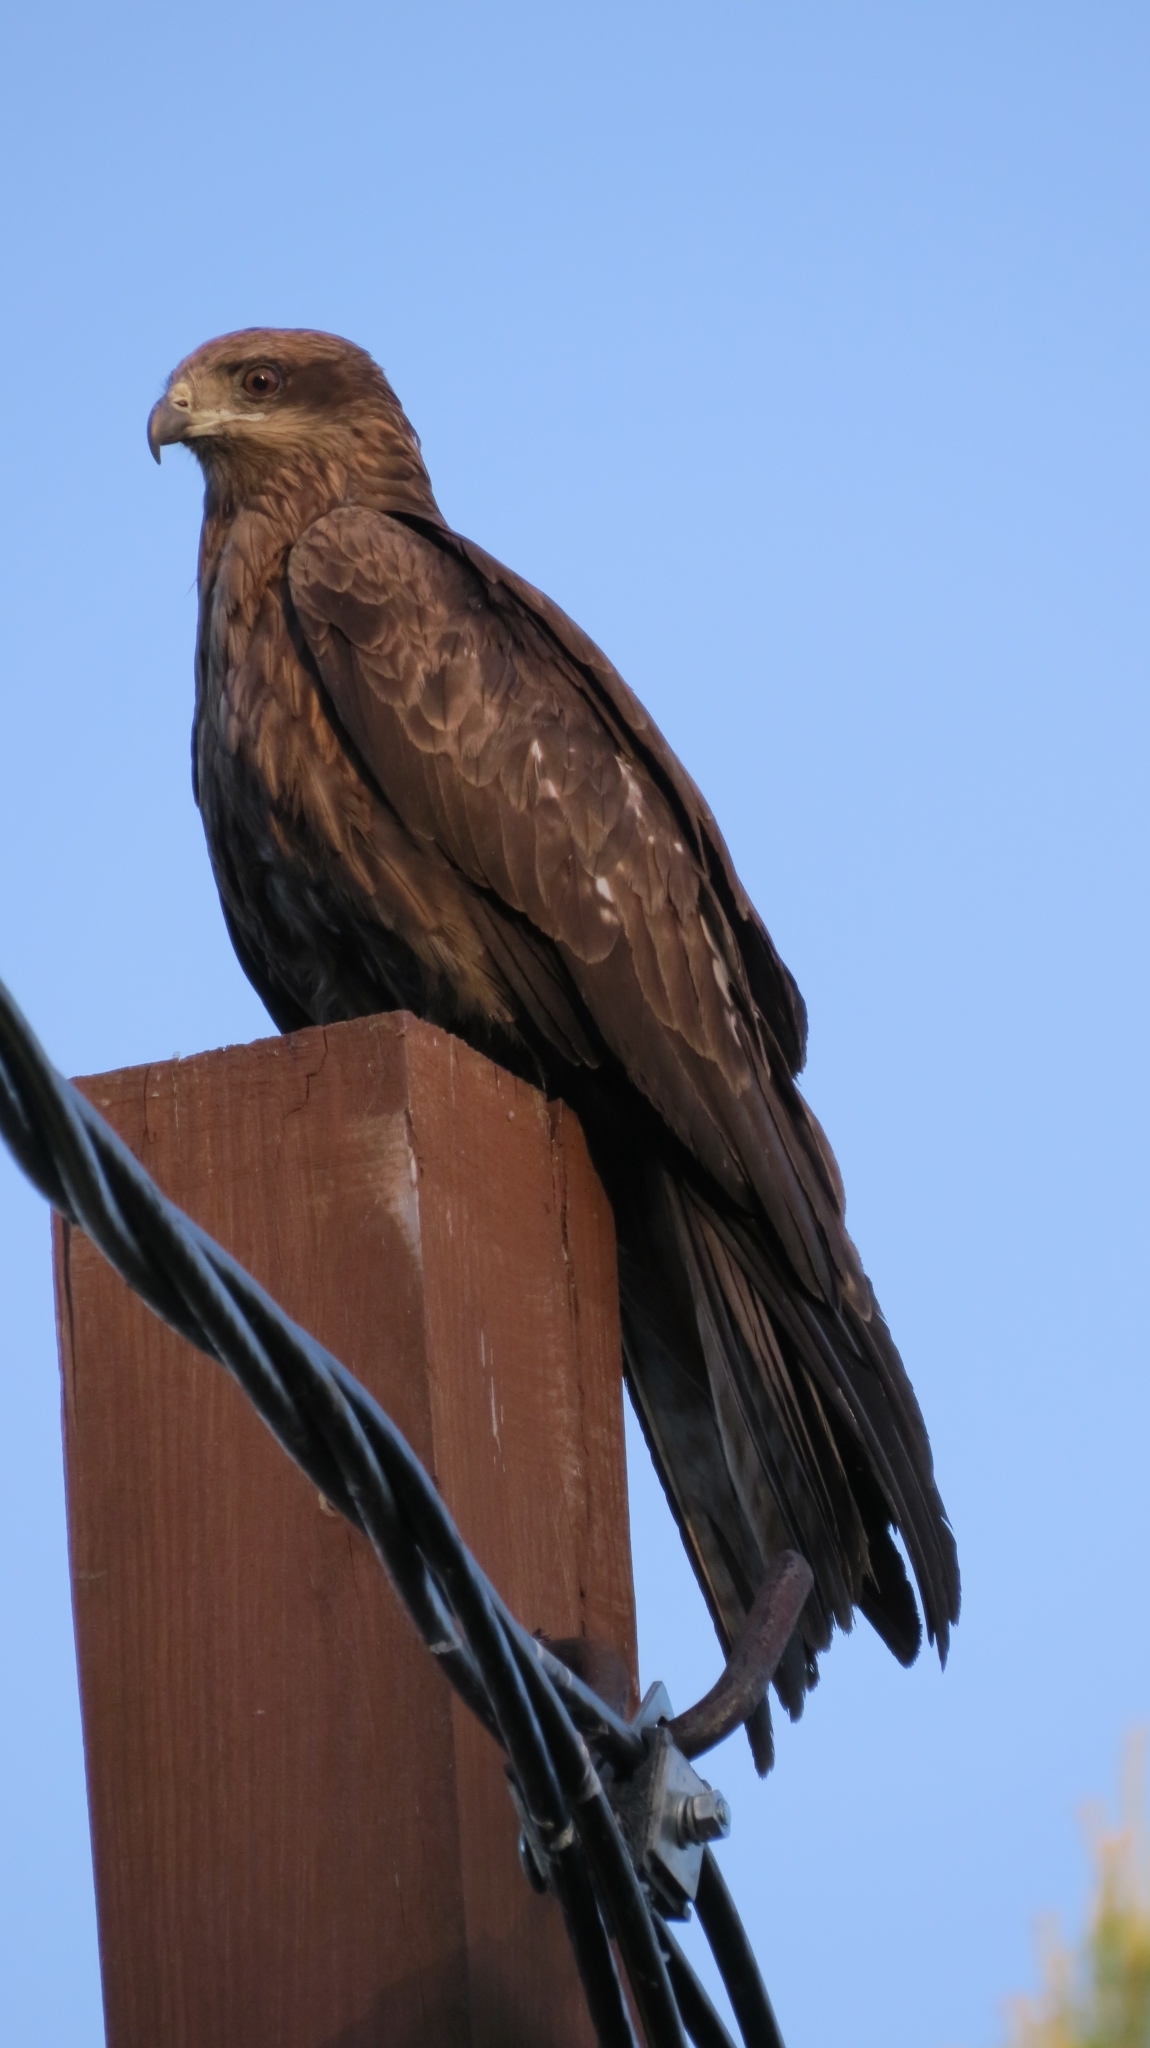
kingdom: Animalia
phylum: Chordata
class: Aves
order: Accipitriformes
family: Accipitridae
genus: Milvus
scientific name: Milvus migrans
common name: Black kite
